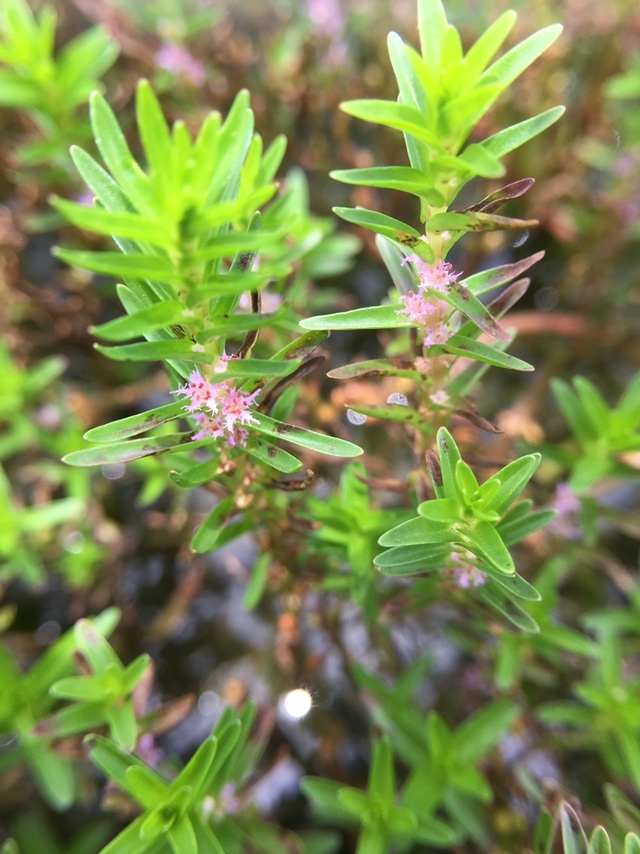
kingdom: Plantae
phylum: Tracheophyta
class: Magnoliopsida
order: Myrtales
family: Lythraceae
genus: Rotala
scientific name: Rotala fimbriata
